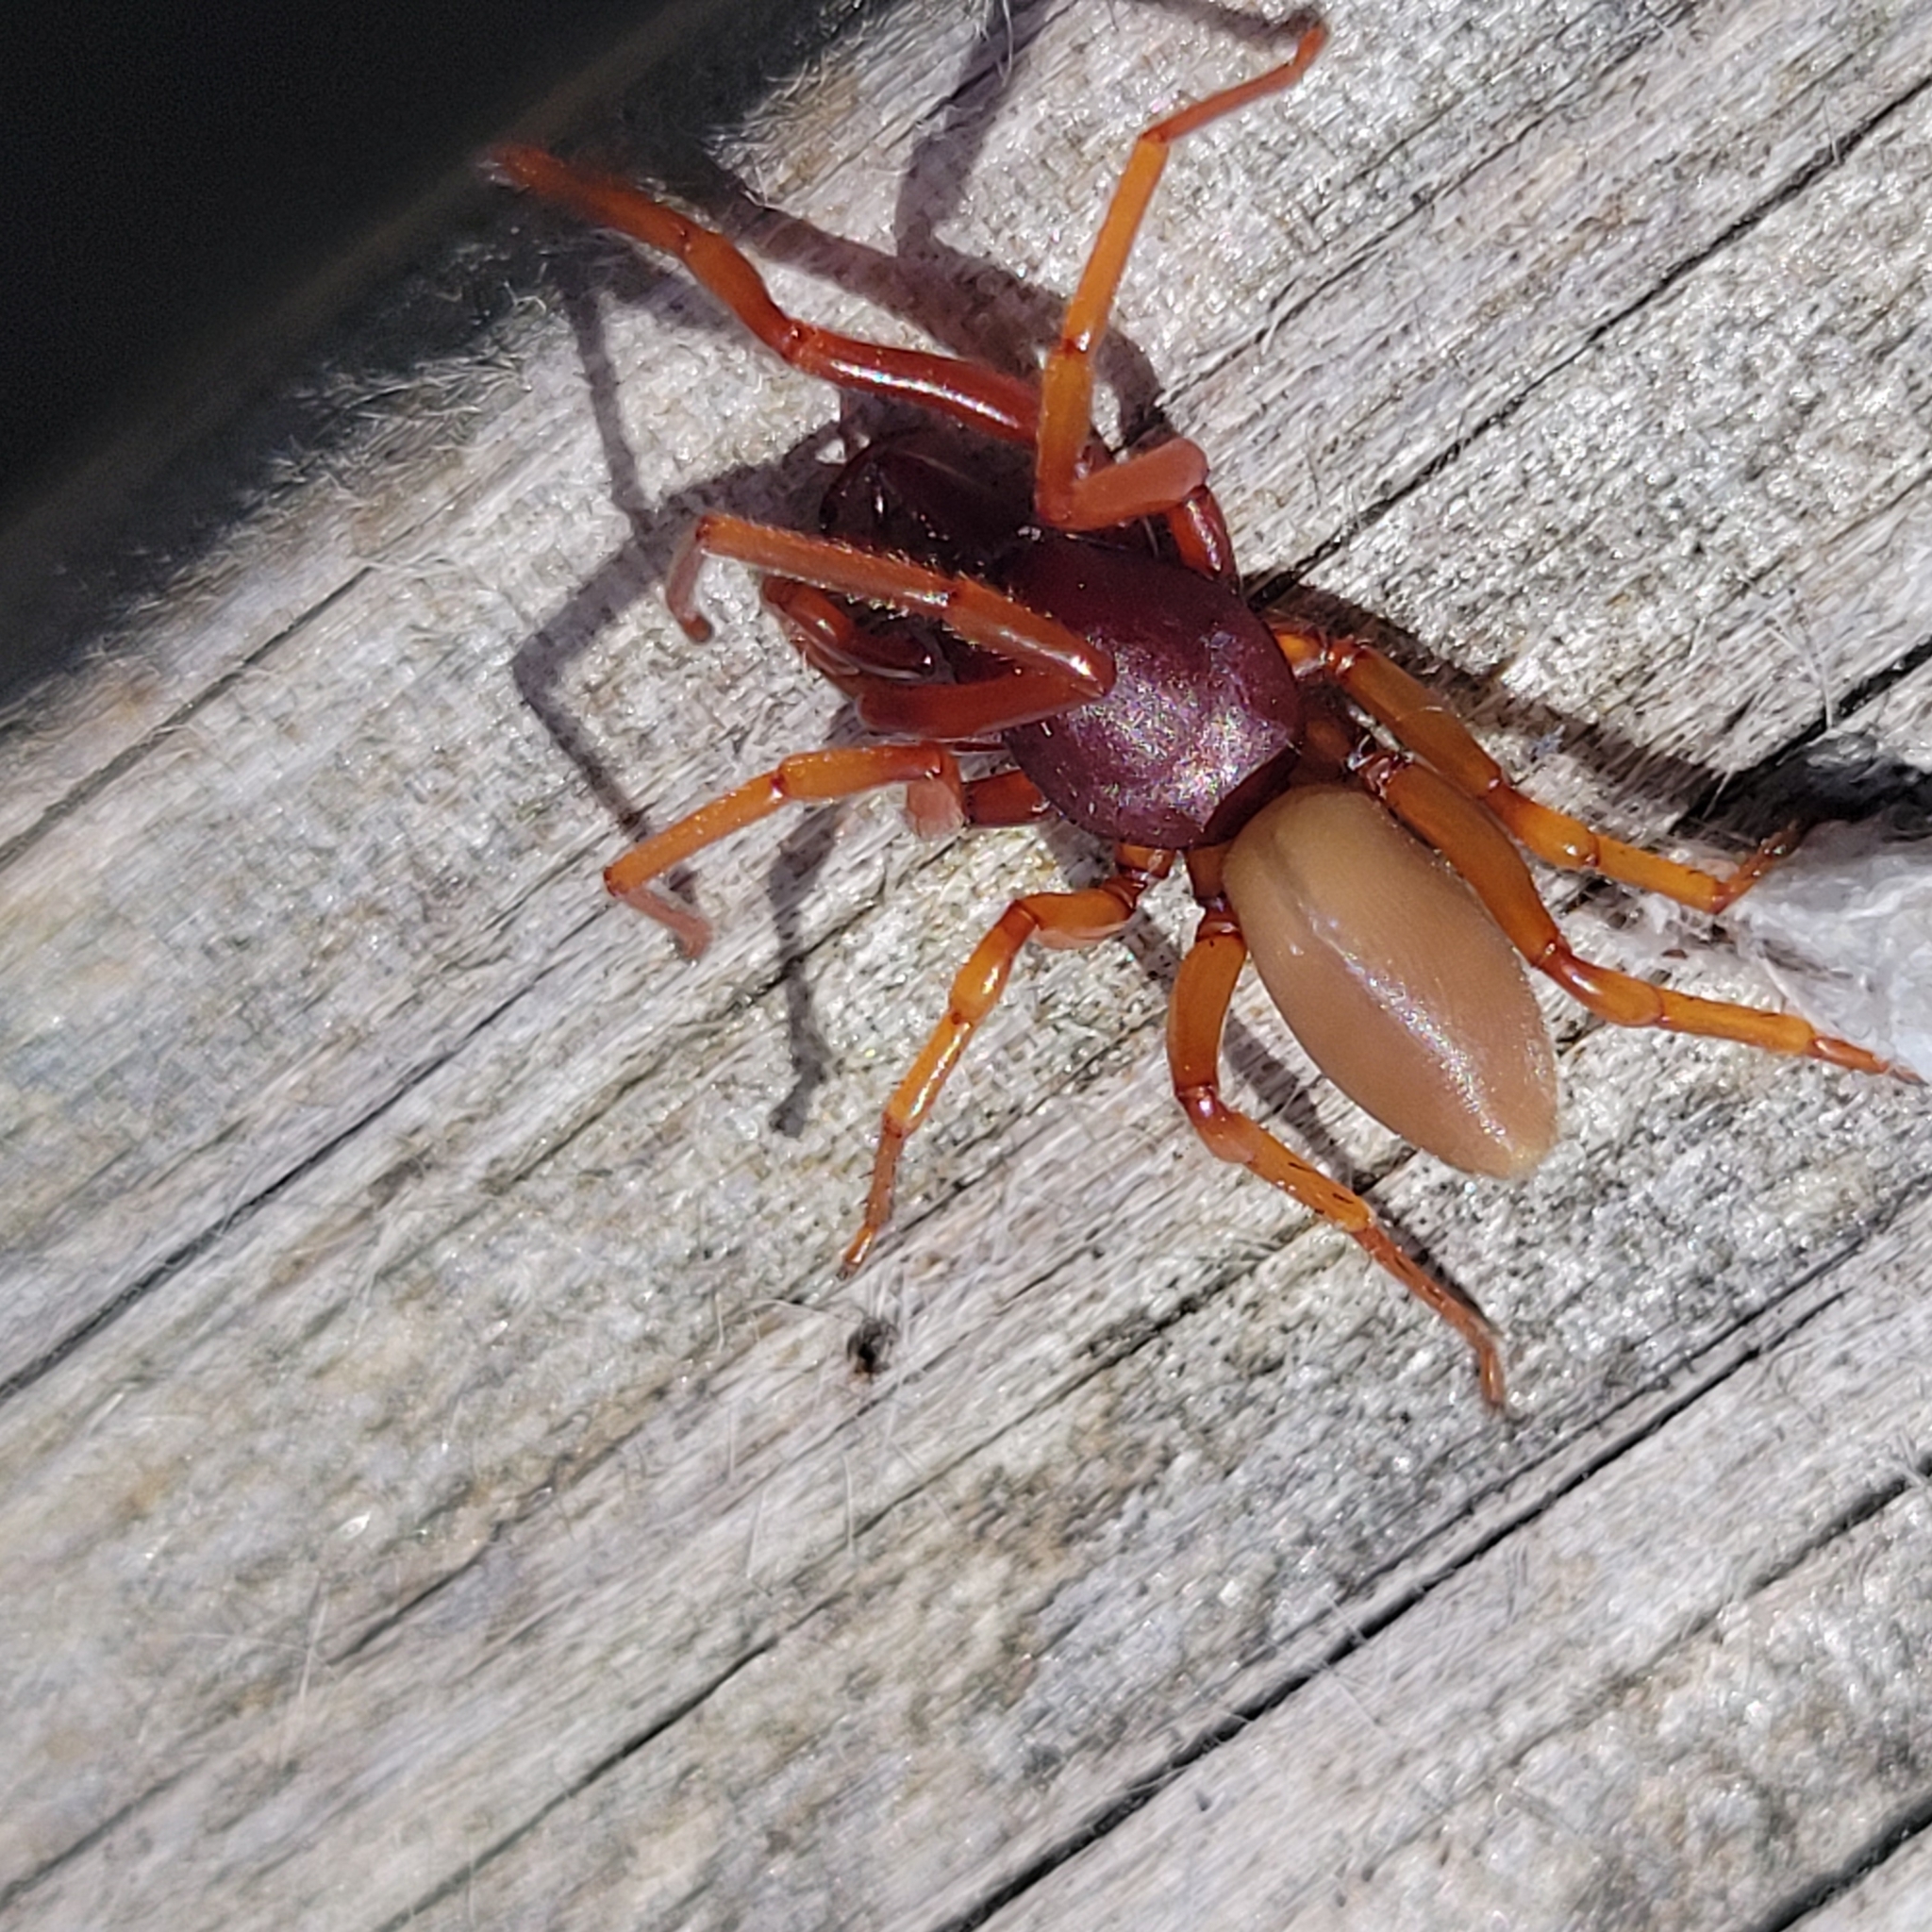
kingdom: Animalia
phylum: Arthropoda
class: Arachnida
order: Araneae
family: Dysderidae
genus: Dysdera
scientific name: Dysdera crocata
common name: Woodlouse spider
